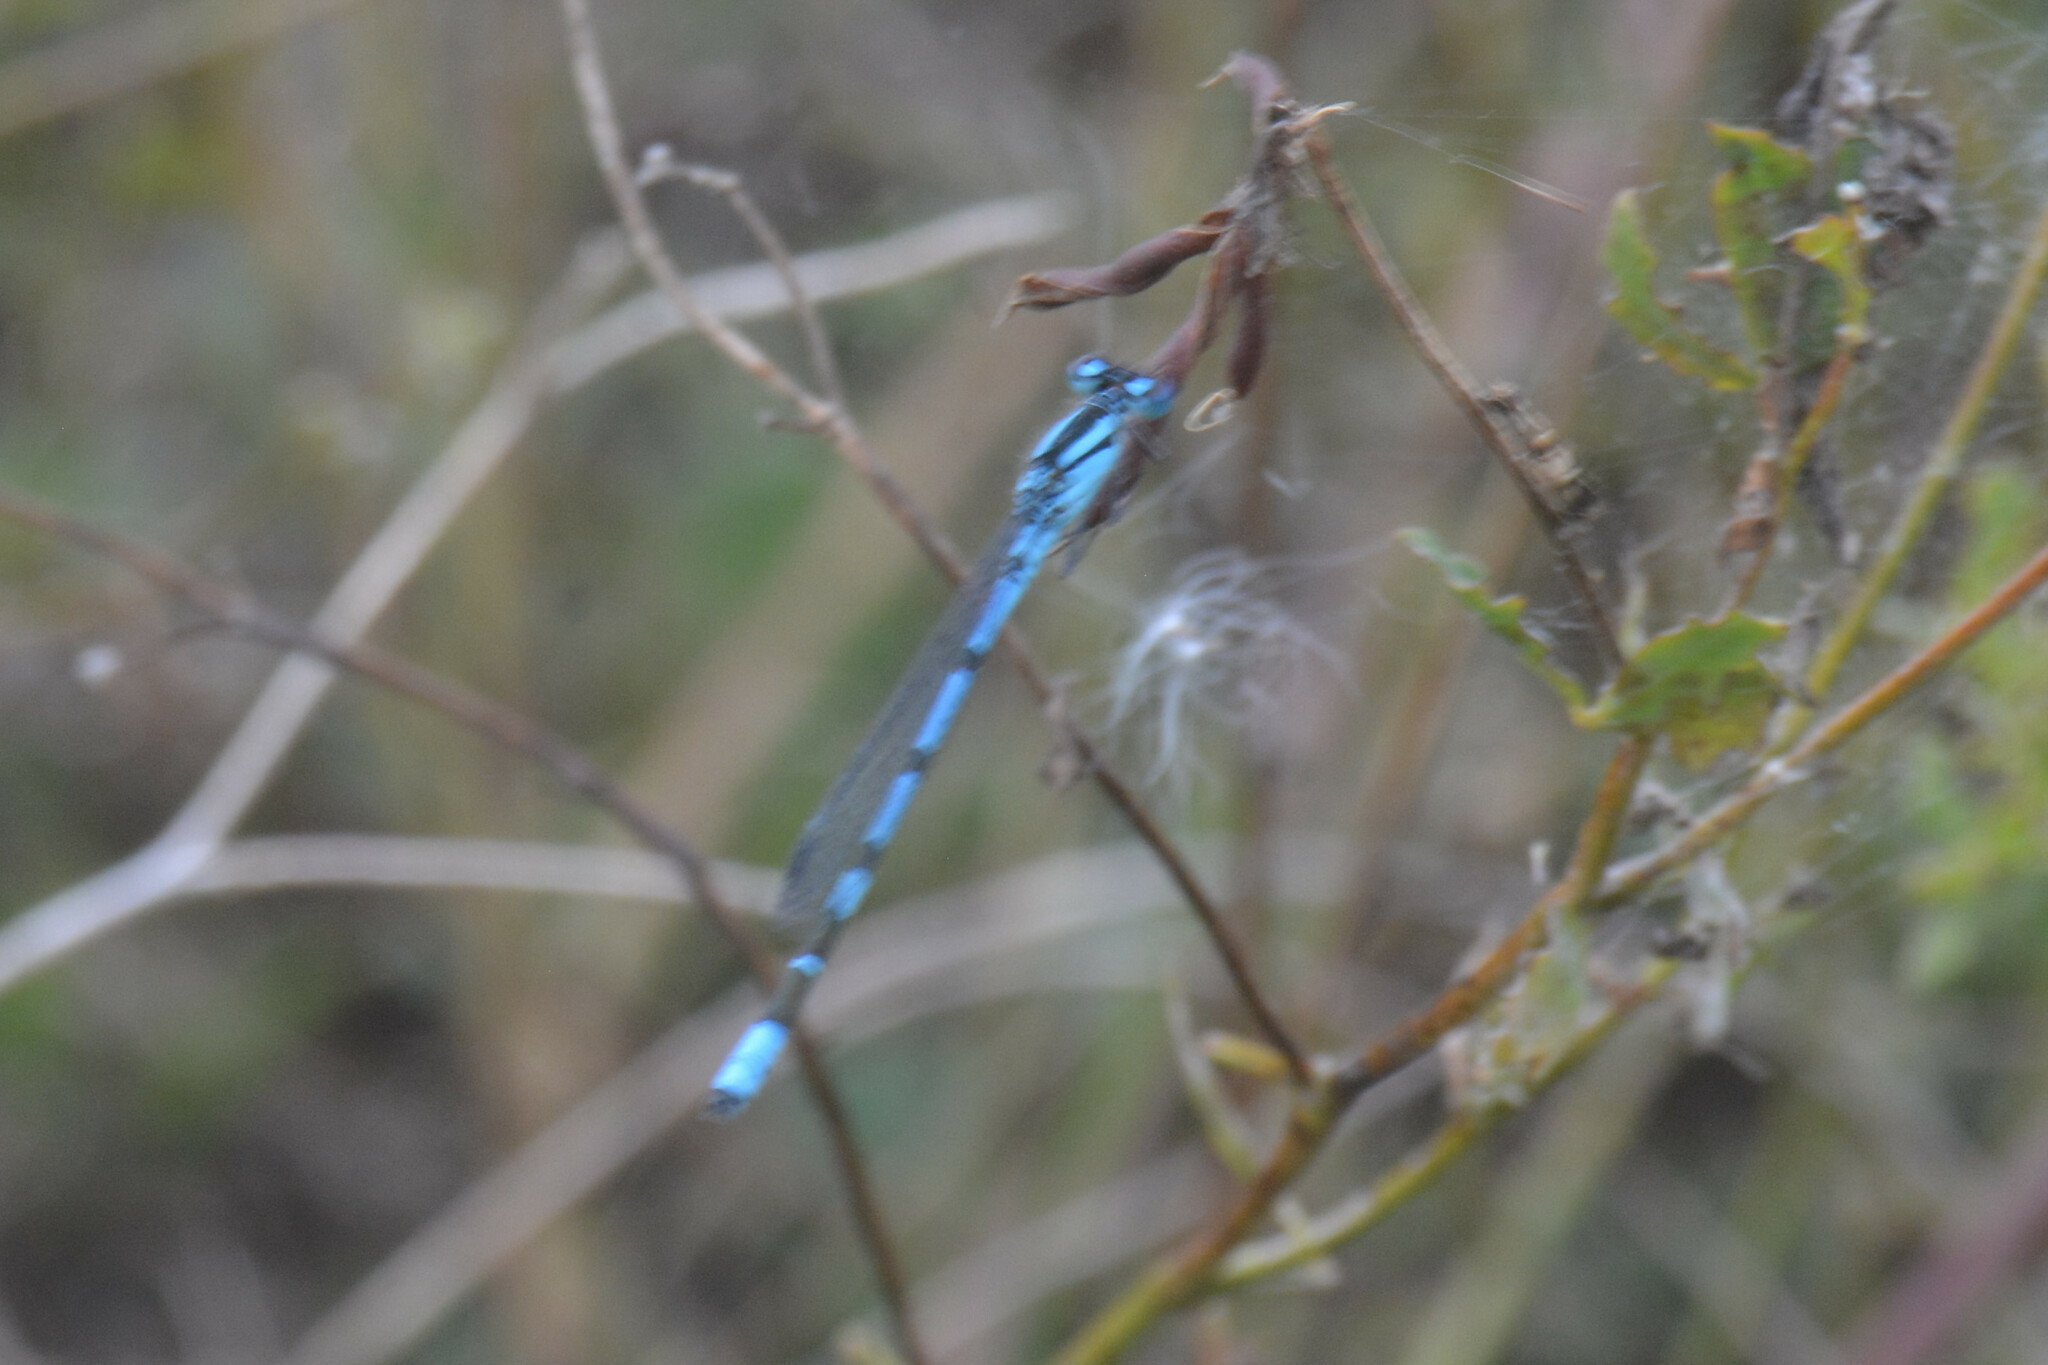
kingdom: Animalia
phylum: Arthropoda
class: Insecta
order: Odonata
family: Coenagrionidae
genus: Enallagma
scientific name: Enallagma cyathigerum
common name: Common blue damselfly
